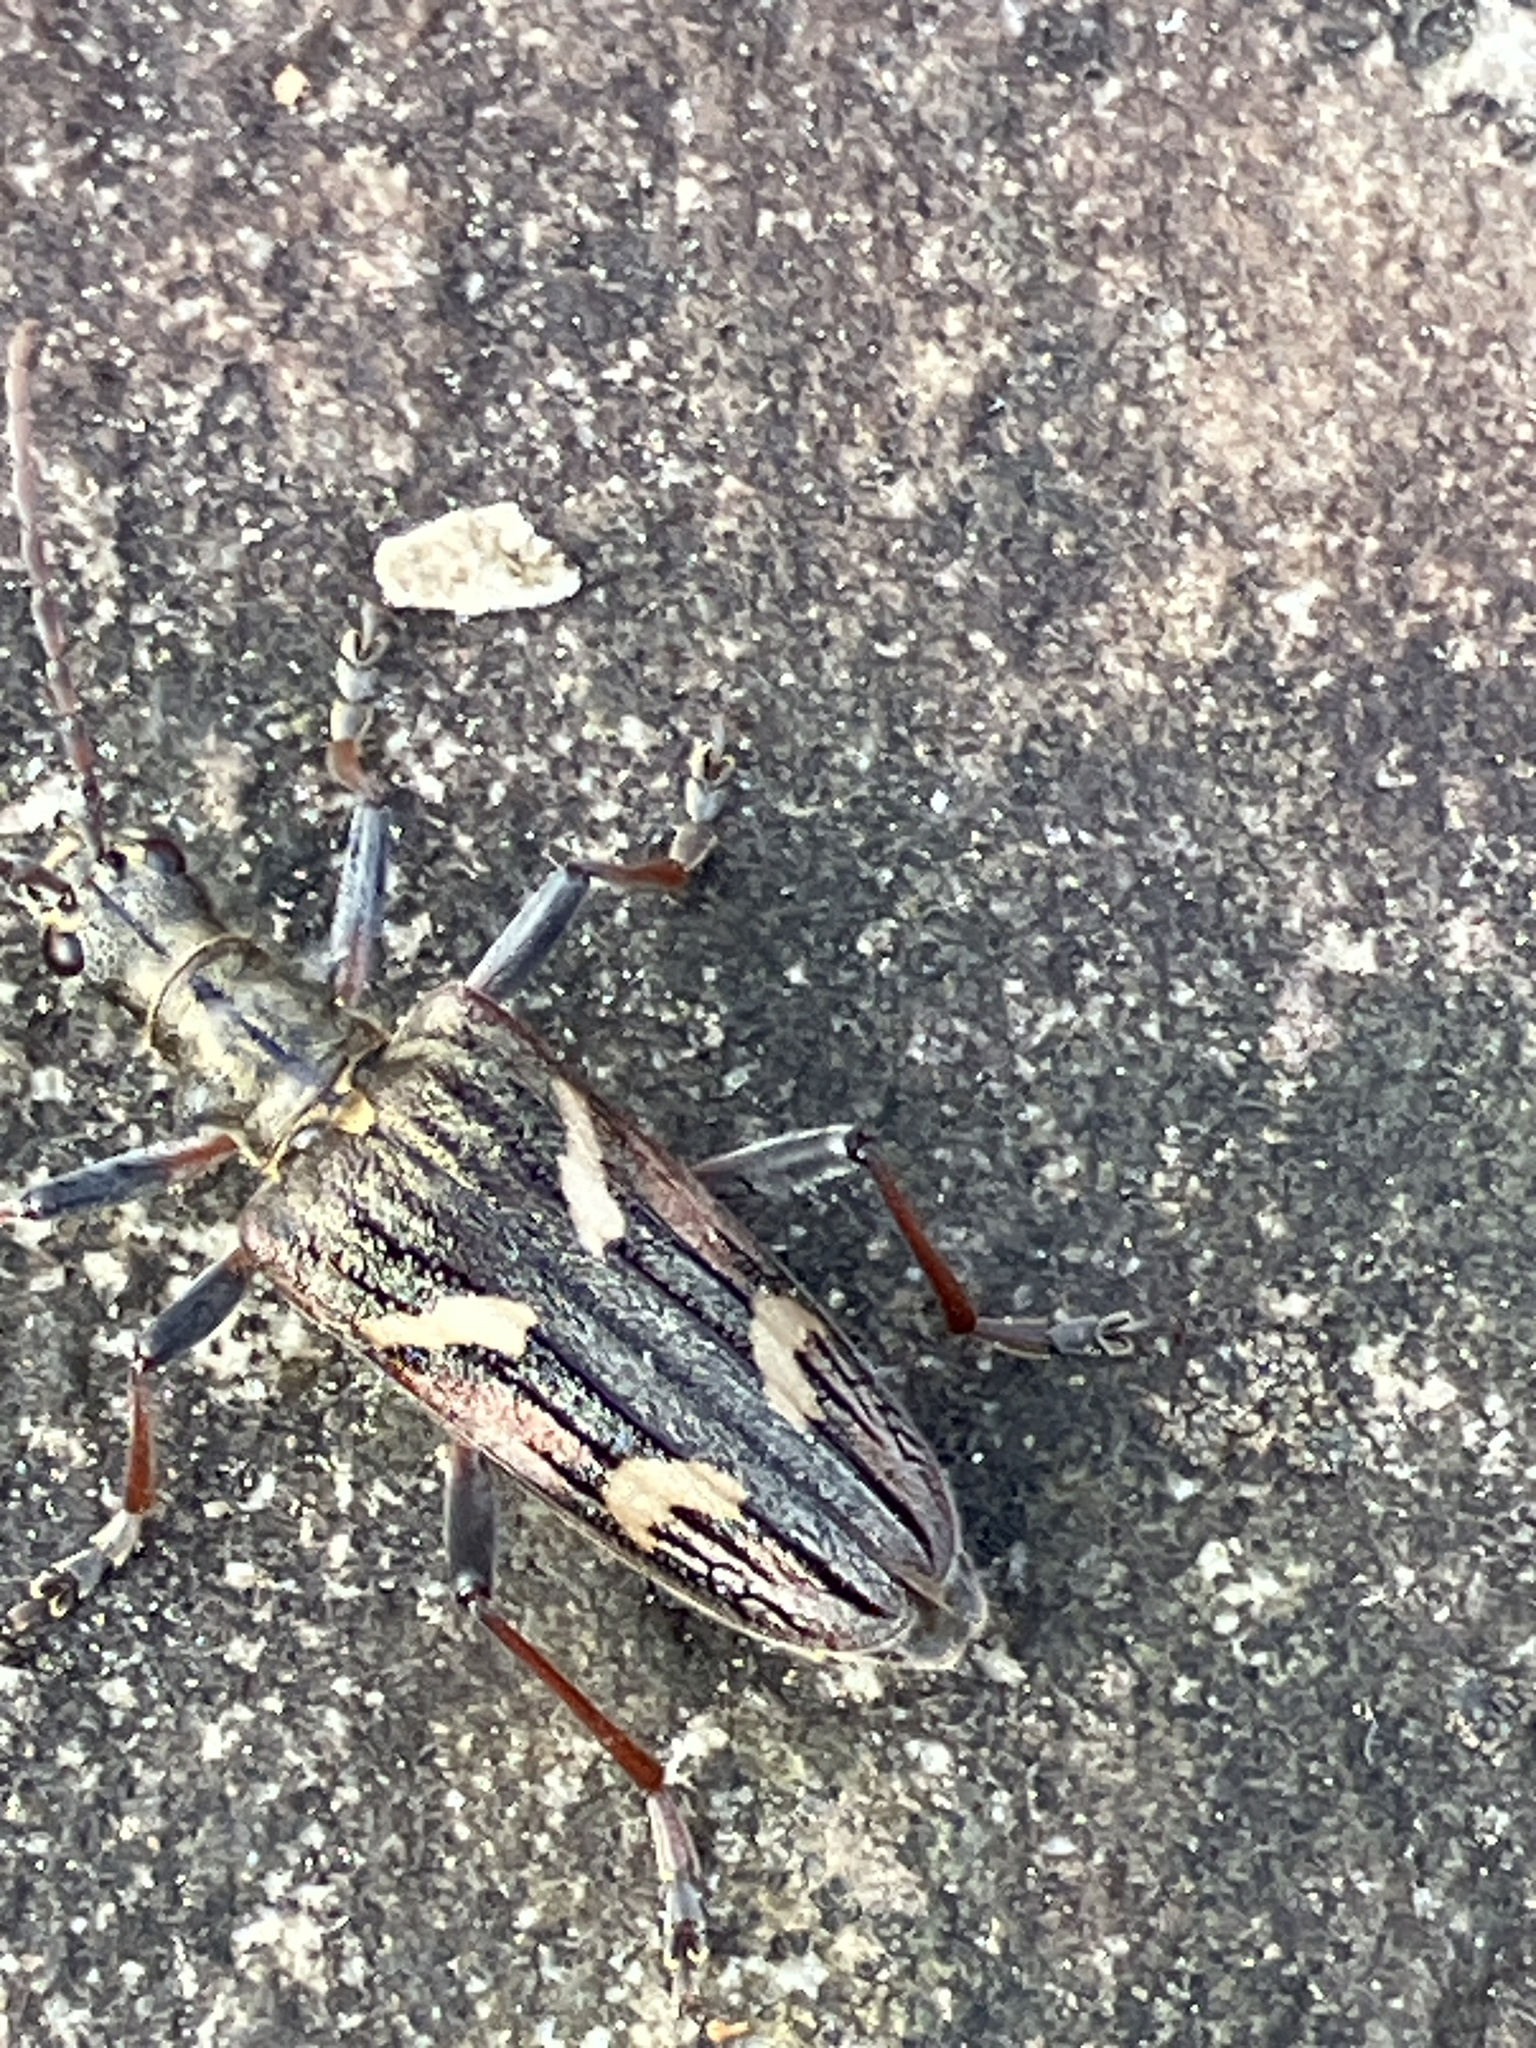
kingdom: Animalia
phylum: Arthropoda
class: Insecta
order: Coleoptera
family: Cerambycidae
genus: Rhagium
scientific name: Rhagium bifasciatum
